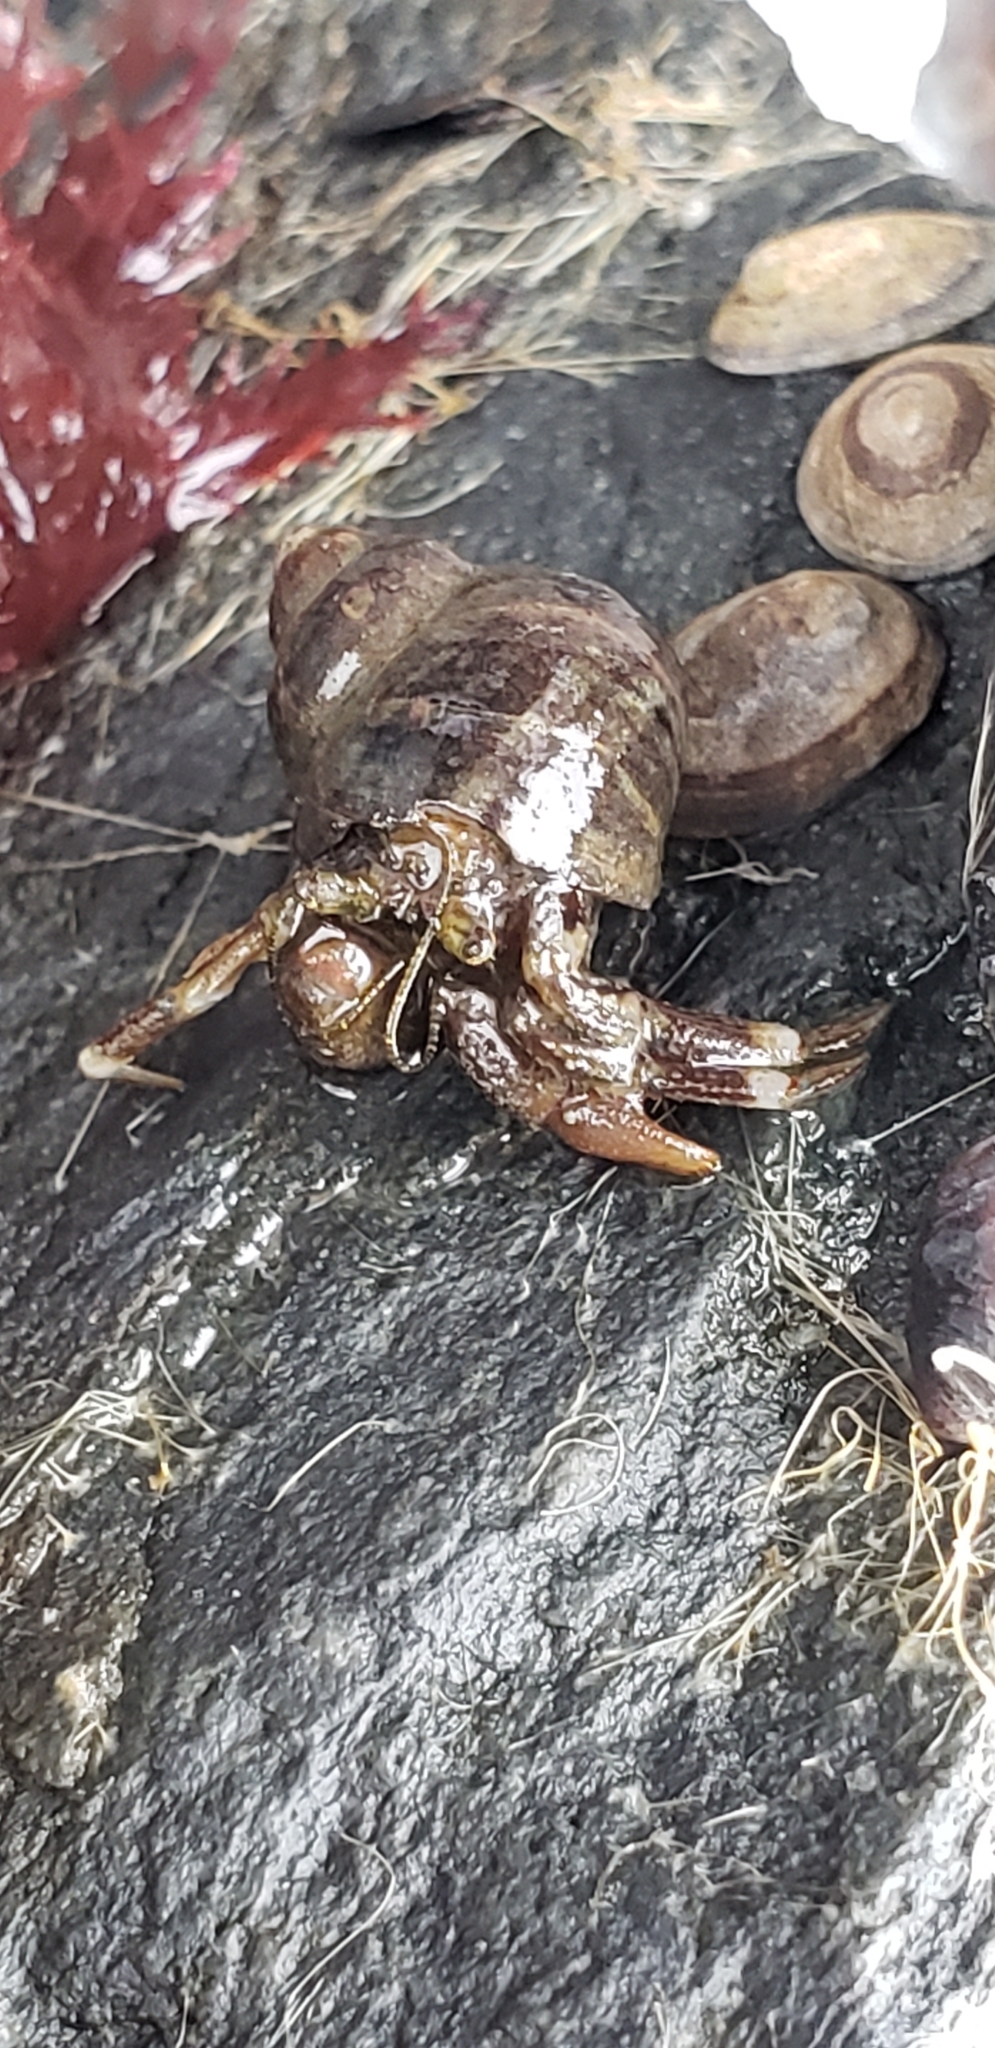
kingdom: Animalia
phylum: Arthropoda
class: Malacostraca
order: Decapoda
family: Paguridae
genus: Pagurus
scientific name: Pagurus hirsutiusculus
